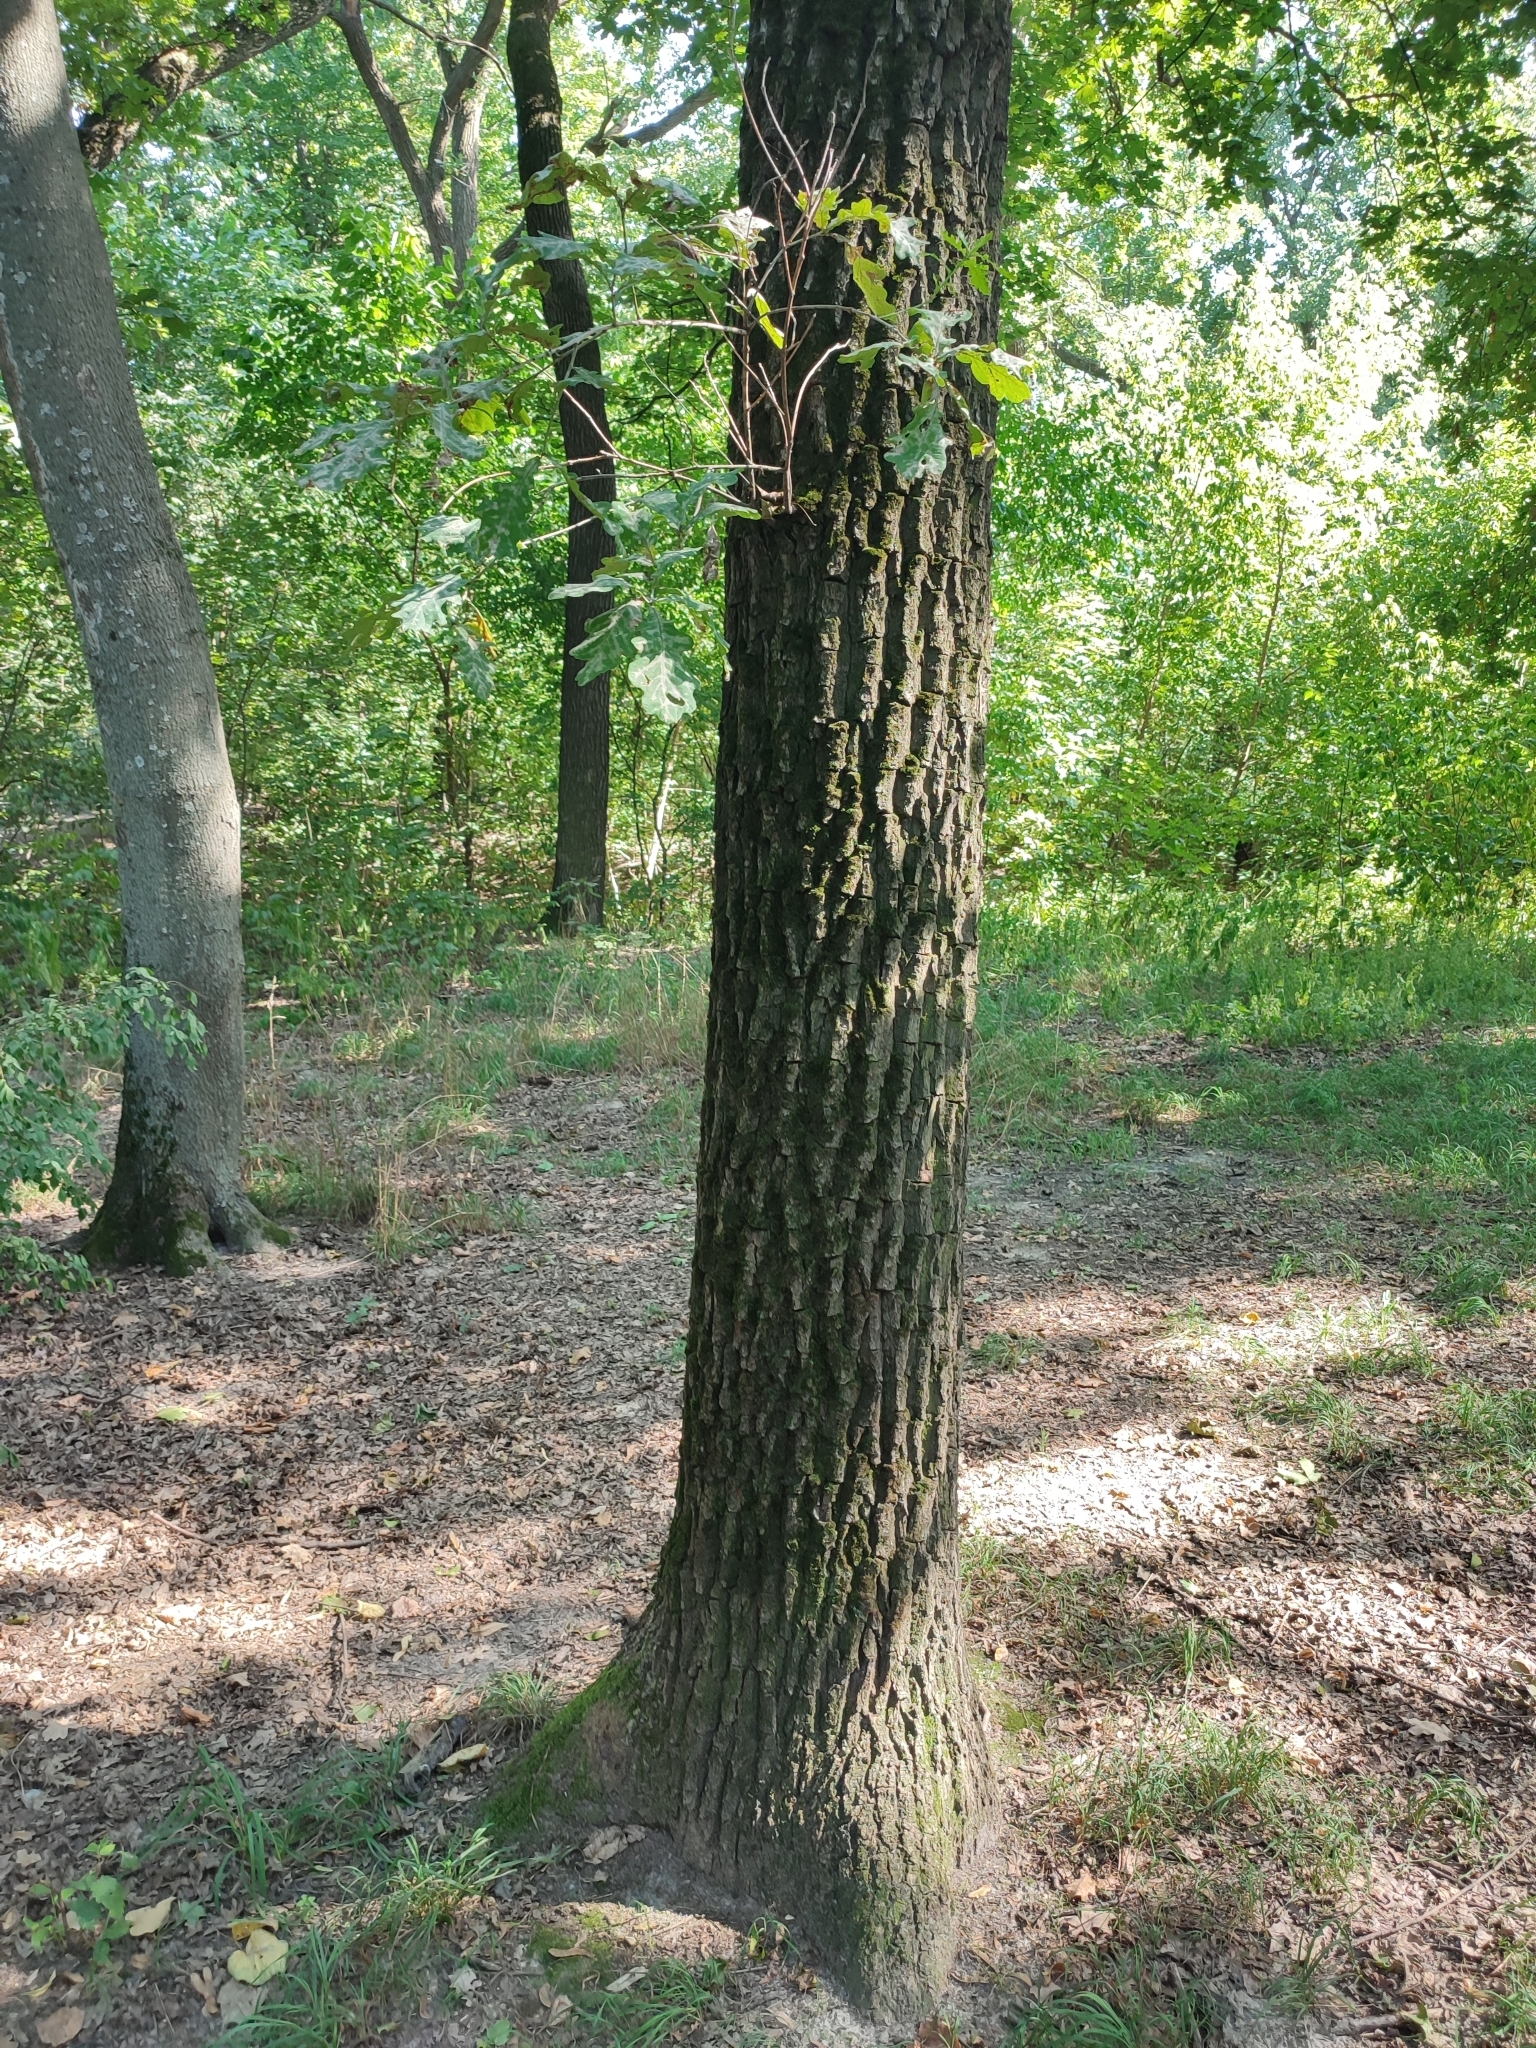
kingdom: Plantae
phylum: Tracheophyta
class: Magnoliopsida
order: Fagales
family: Fagaceae
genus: Quercus
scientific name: Quercus robur
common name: Pedunculate oak
